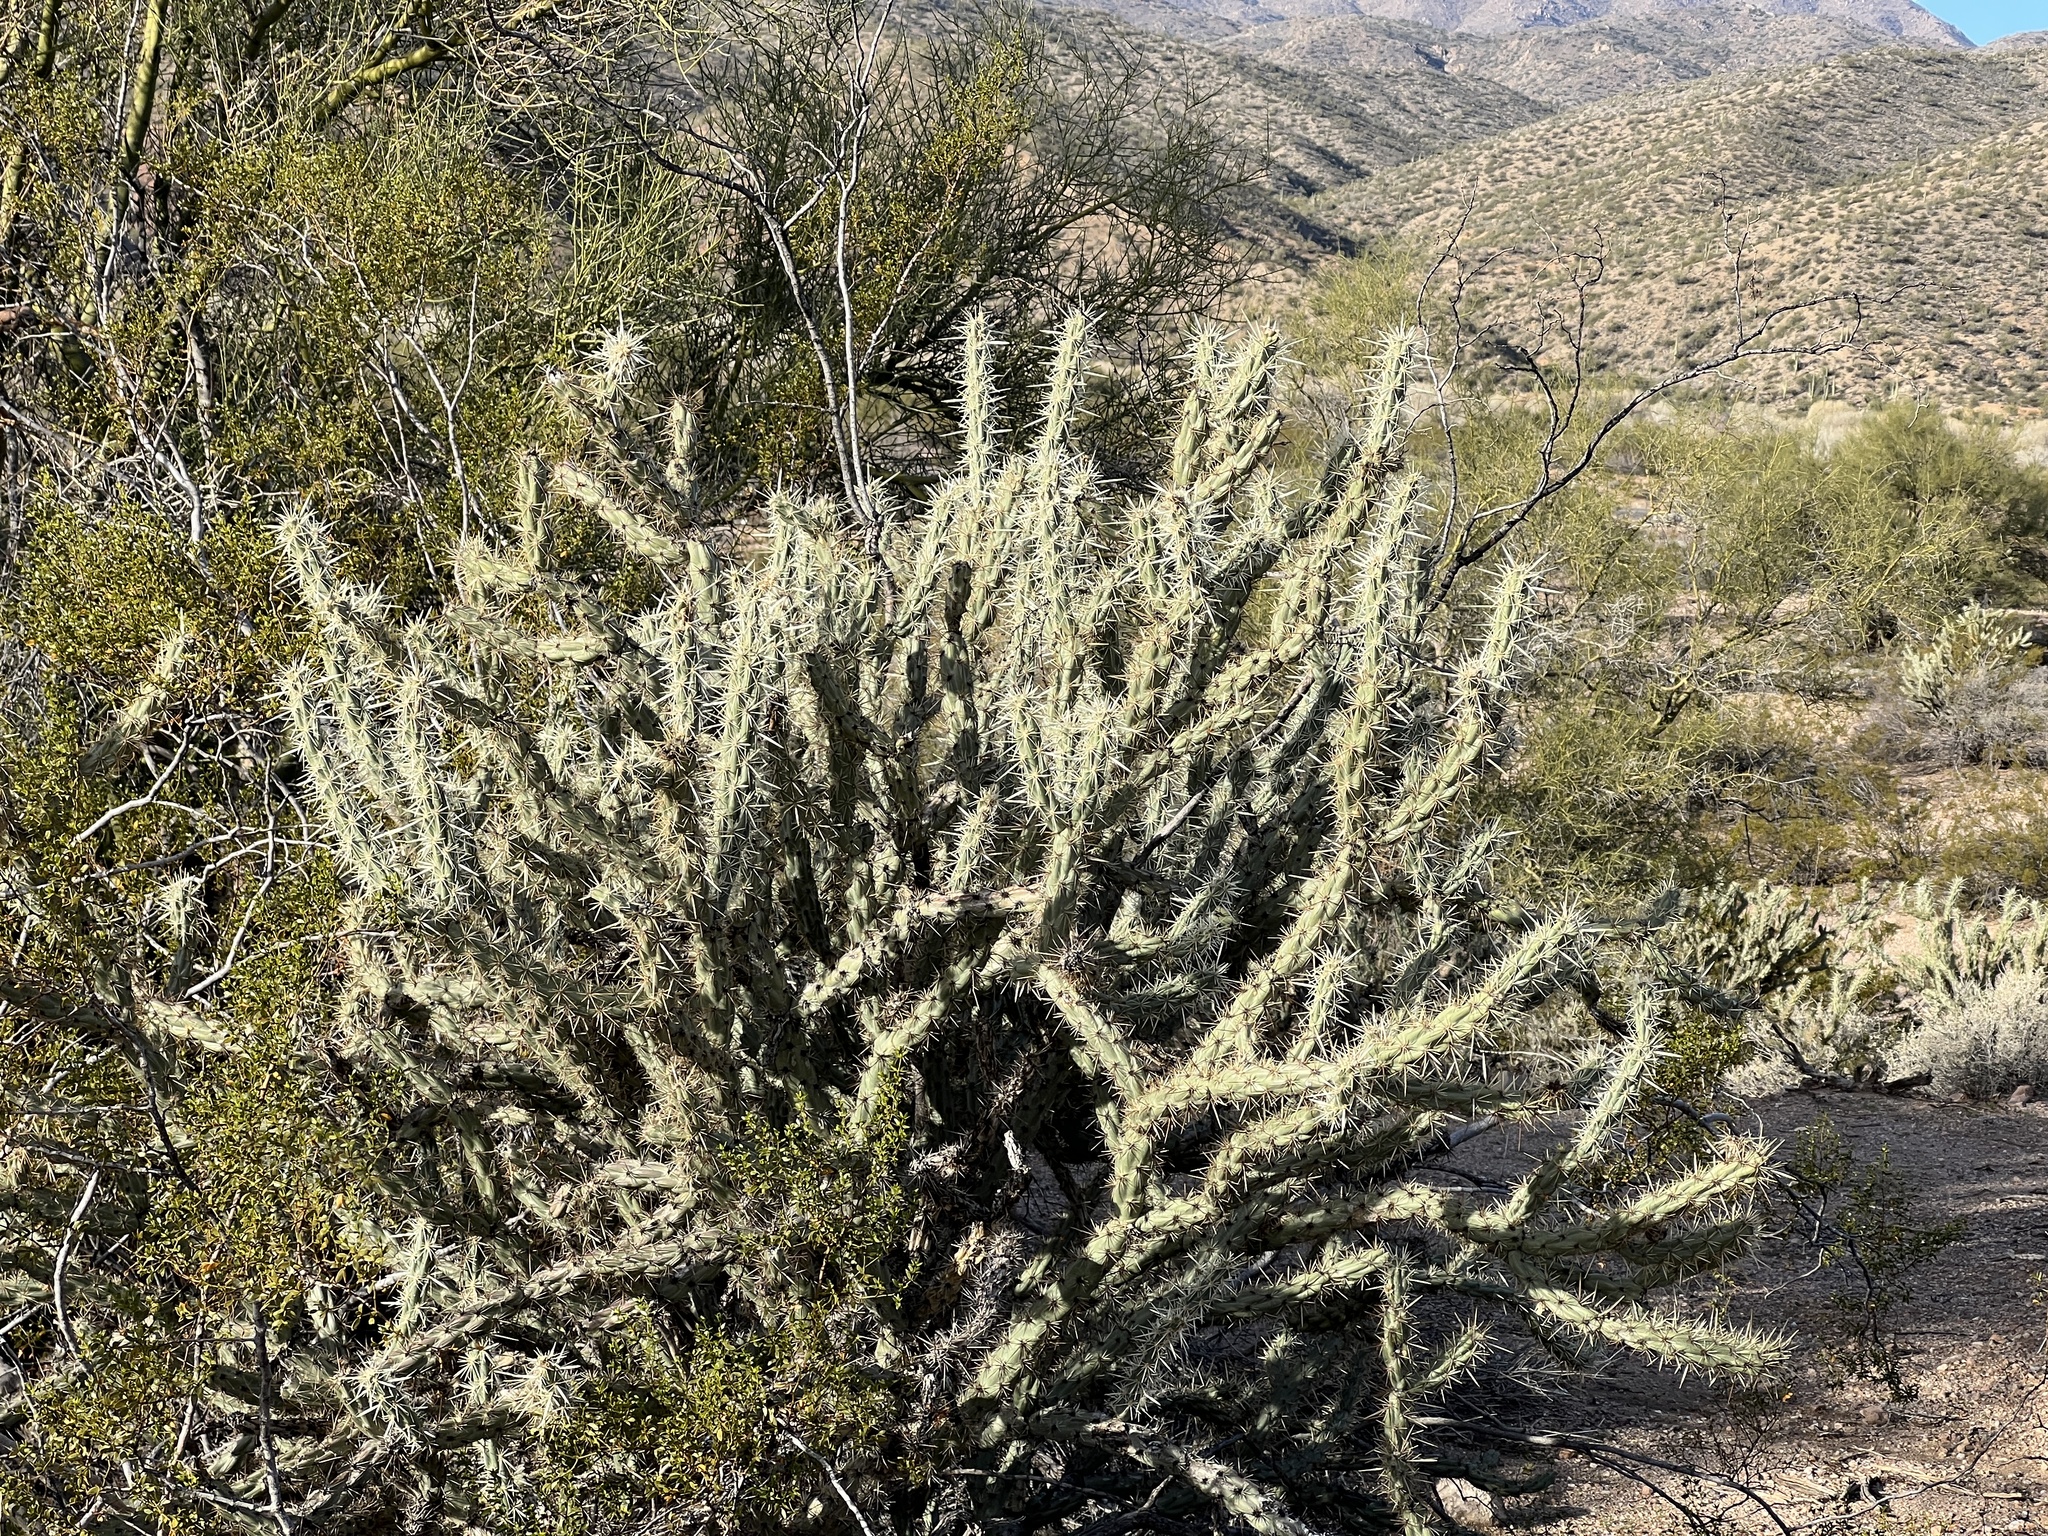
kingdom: Plantae
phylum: Tracheophyta
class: Magnoliopsida
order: Caryophyllales
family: Cactaceae
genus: Cylindropuntia
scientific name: Cylindropuntia acanthocarpa
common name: Buckhorn cholla
